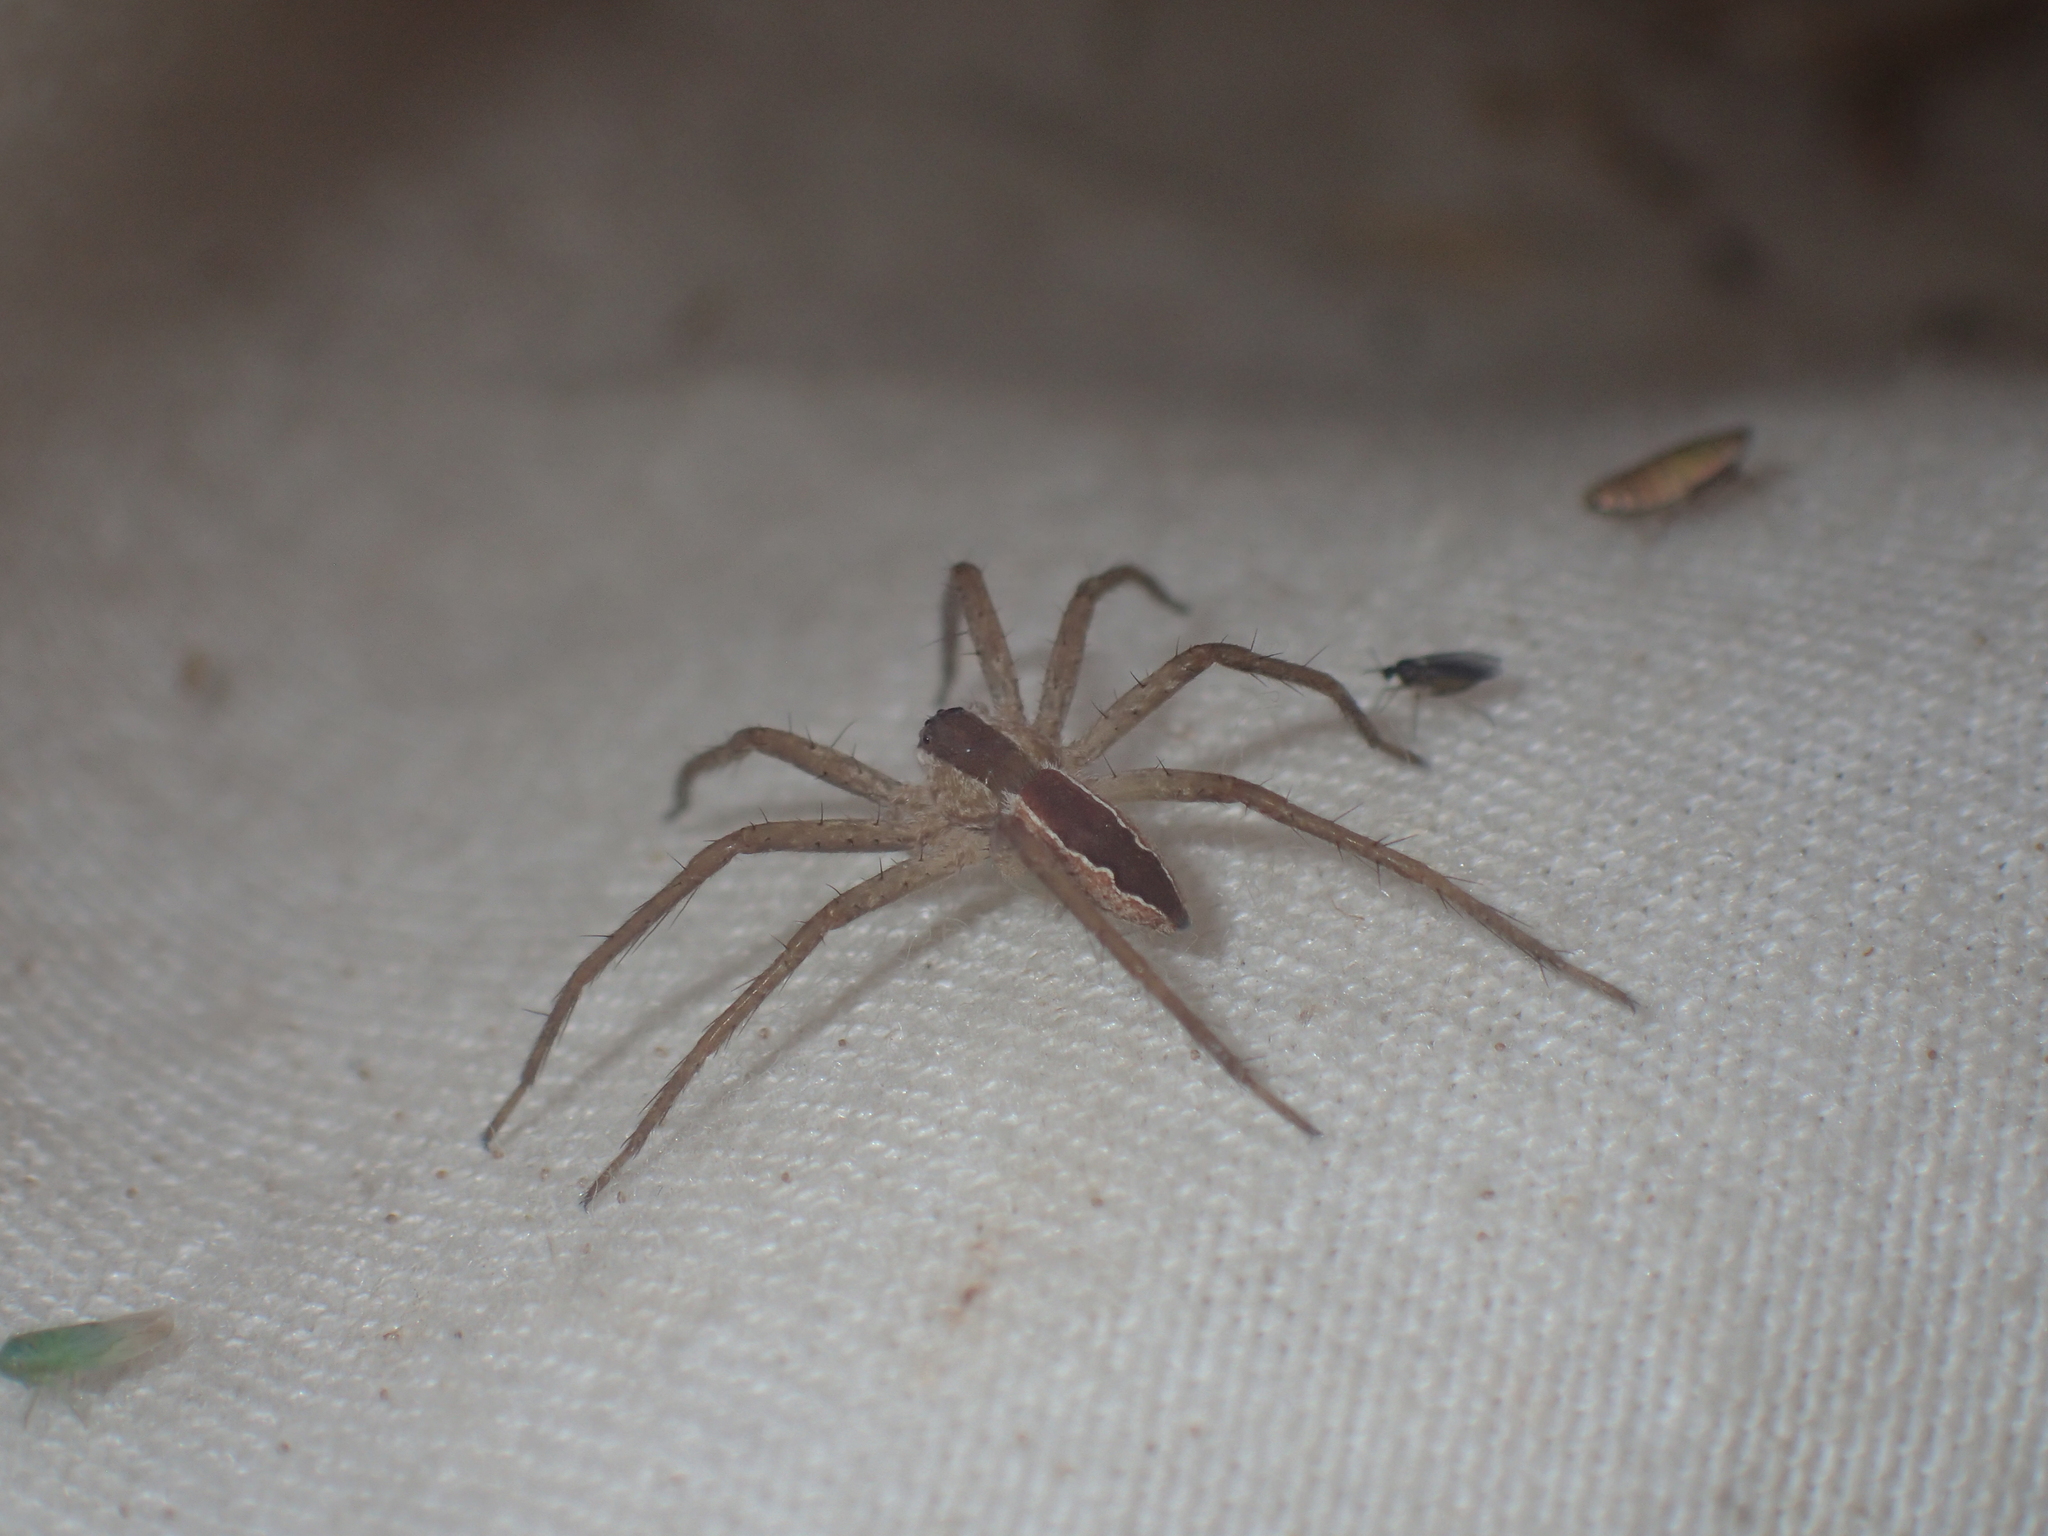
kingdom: Animalia
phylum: Arthropoda
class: Arachnida
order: Araneae
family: Pisauridae
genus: Pisaurina
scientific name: Pisaurina mira
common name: American nursery web spider
